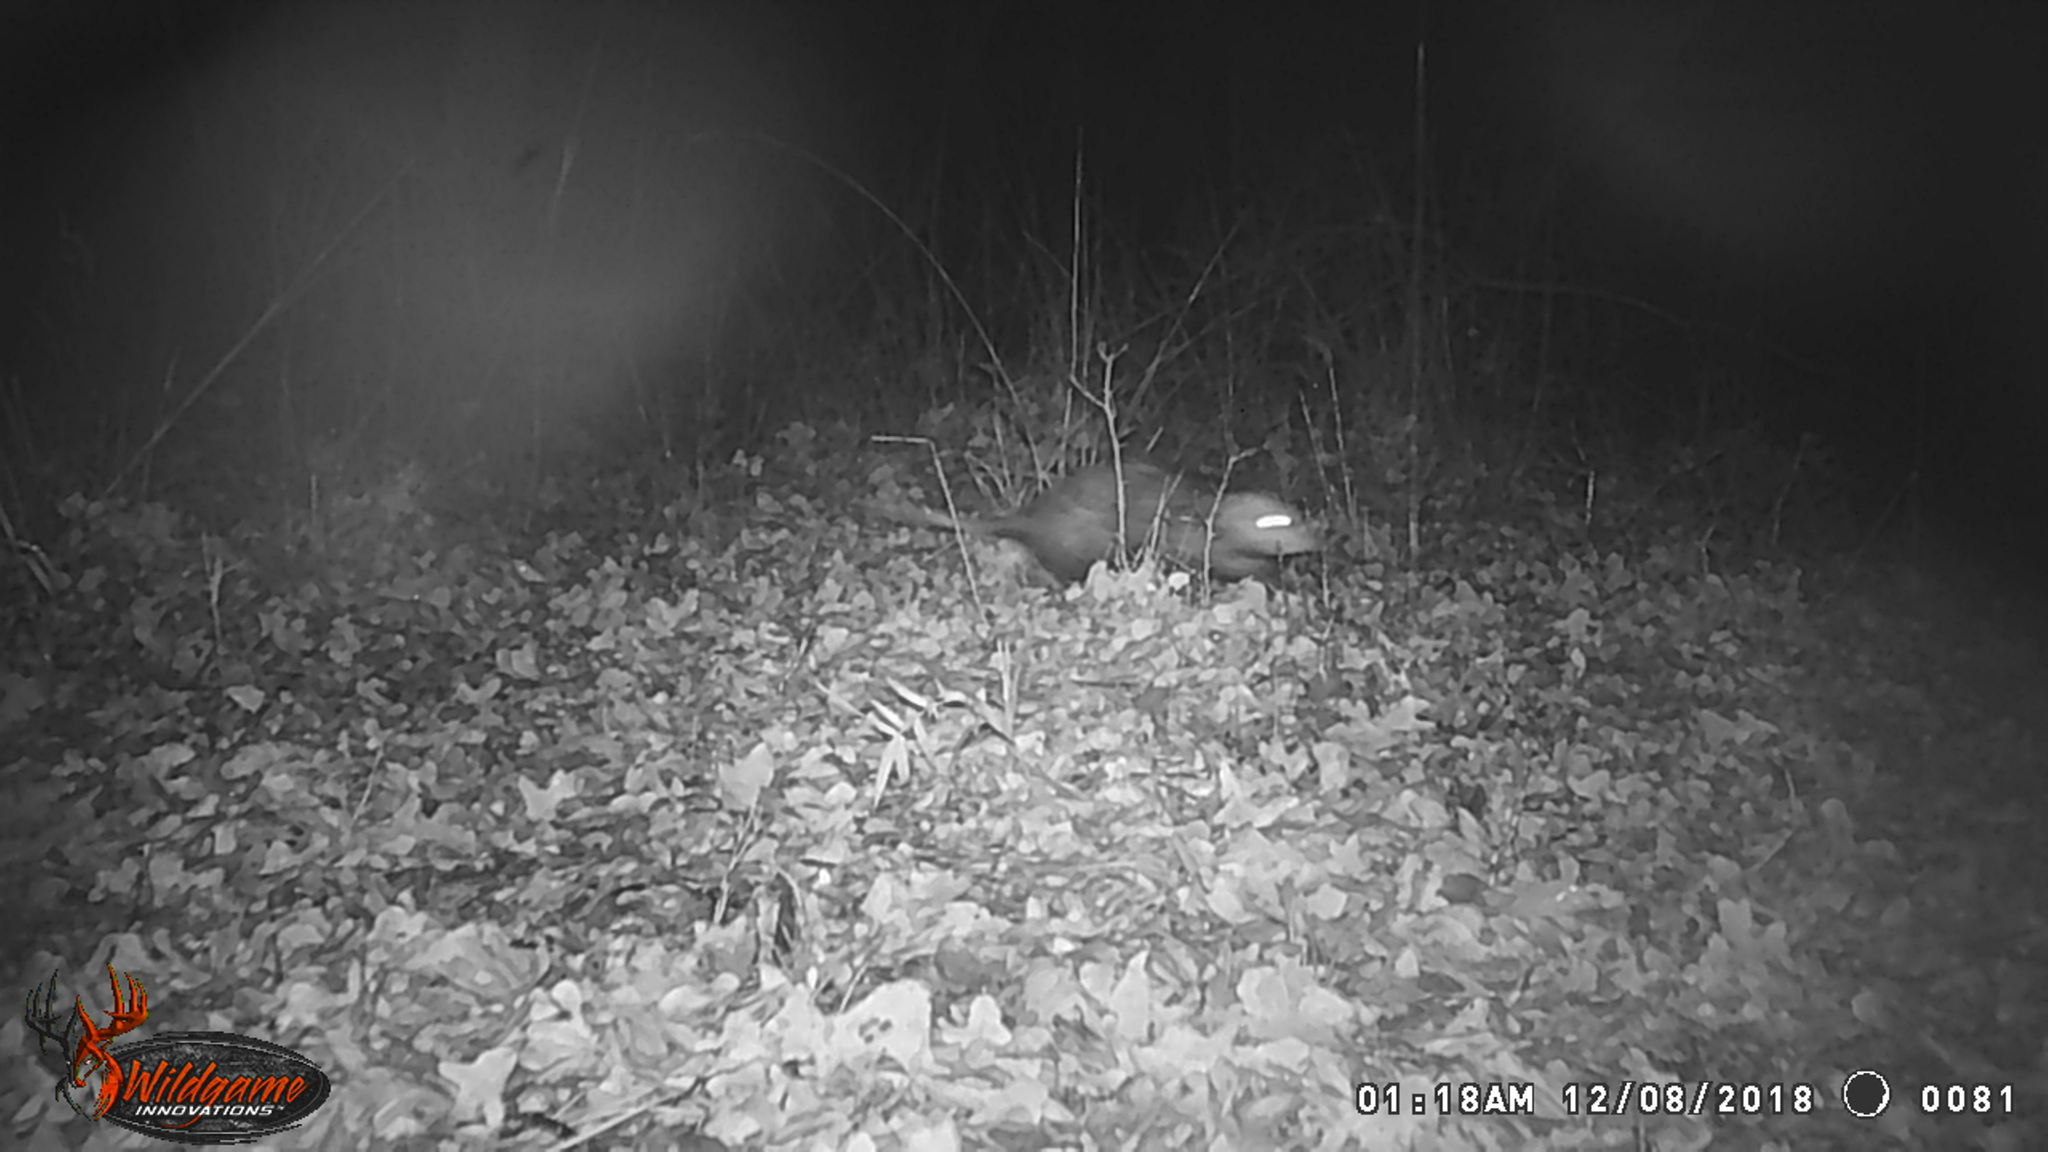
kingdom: Animalia
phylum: Chordata
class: Mammalia
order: Didelphimorphia
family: Didelphidae
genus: Didelphis
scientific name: Didelphis virginiana
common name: Virginia opossum
